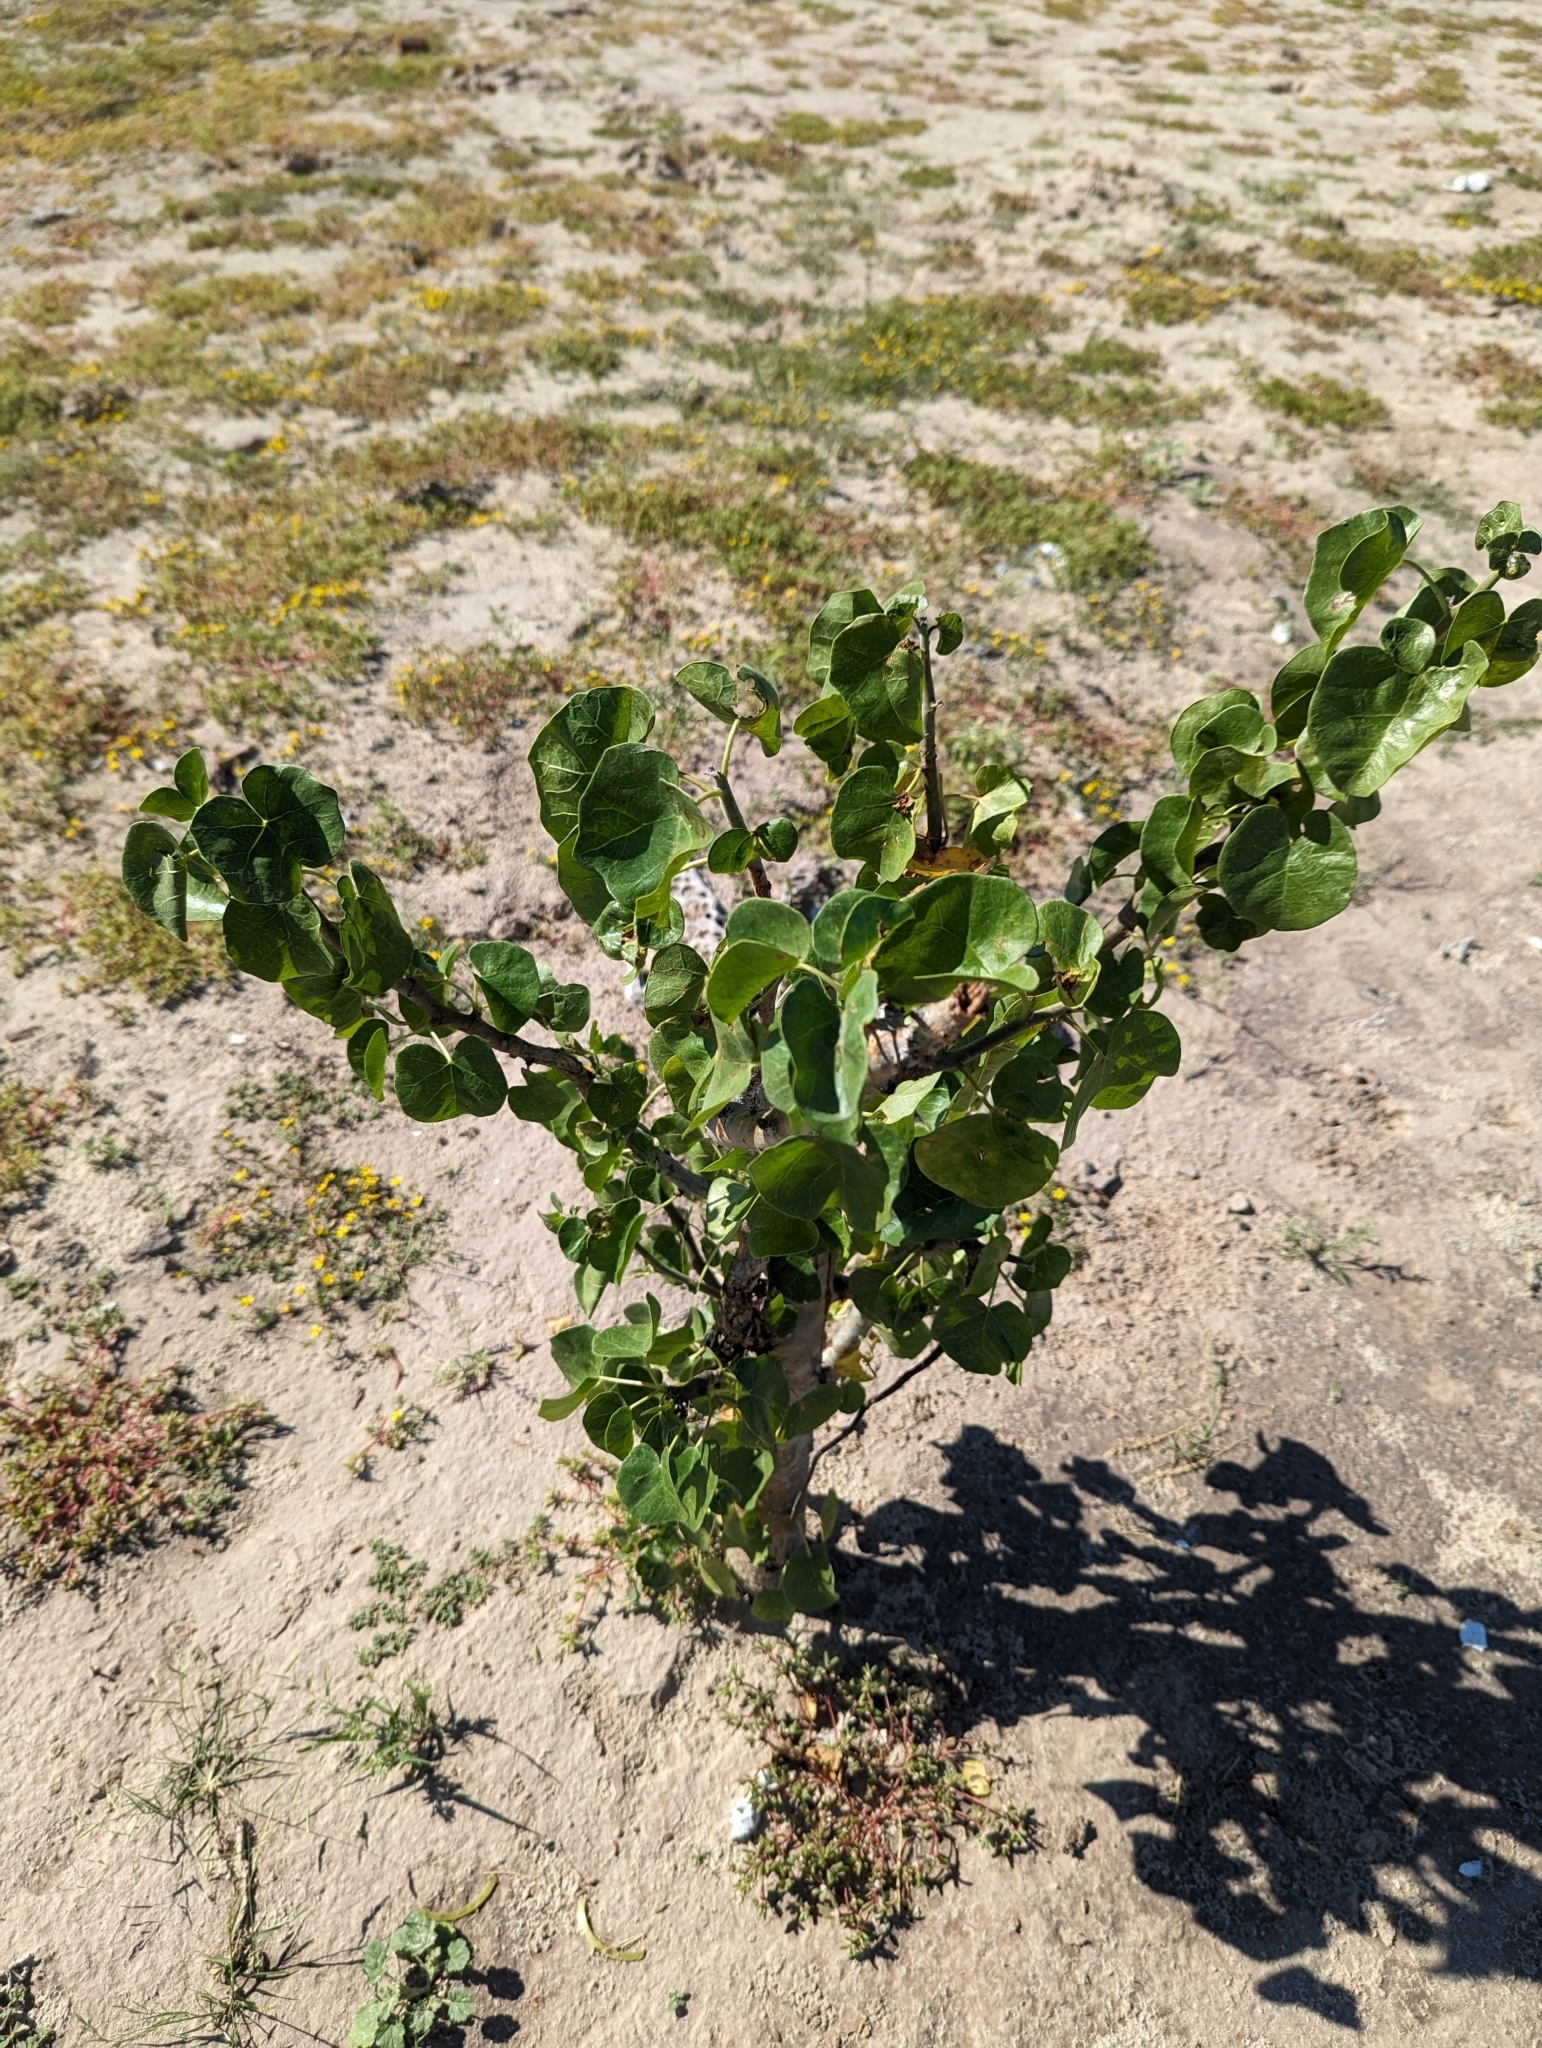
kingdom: Plantae
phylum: Tracheophyta
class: Magnoliopsida
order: Malpighiales
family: Euphorbiaceae
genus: Jatropha
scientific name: Jatropha cinerea
